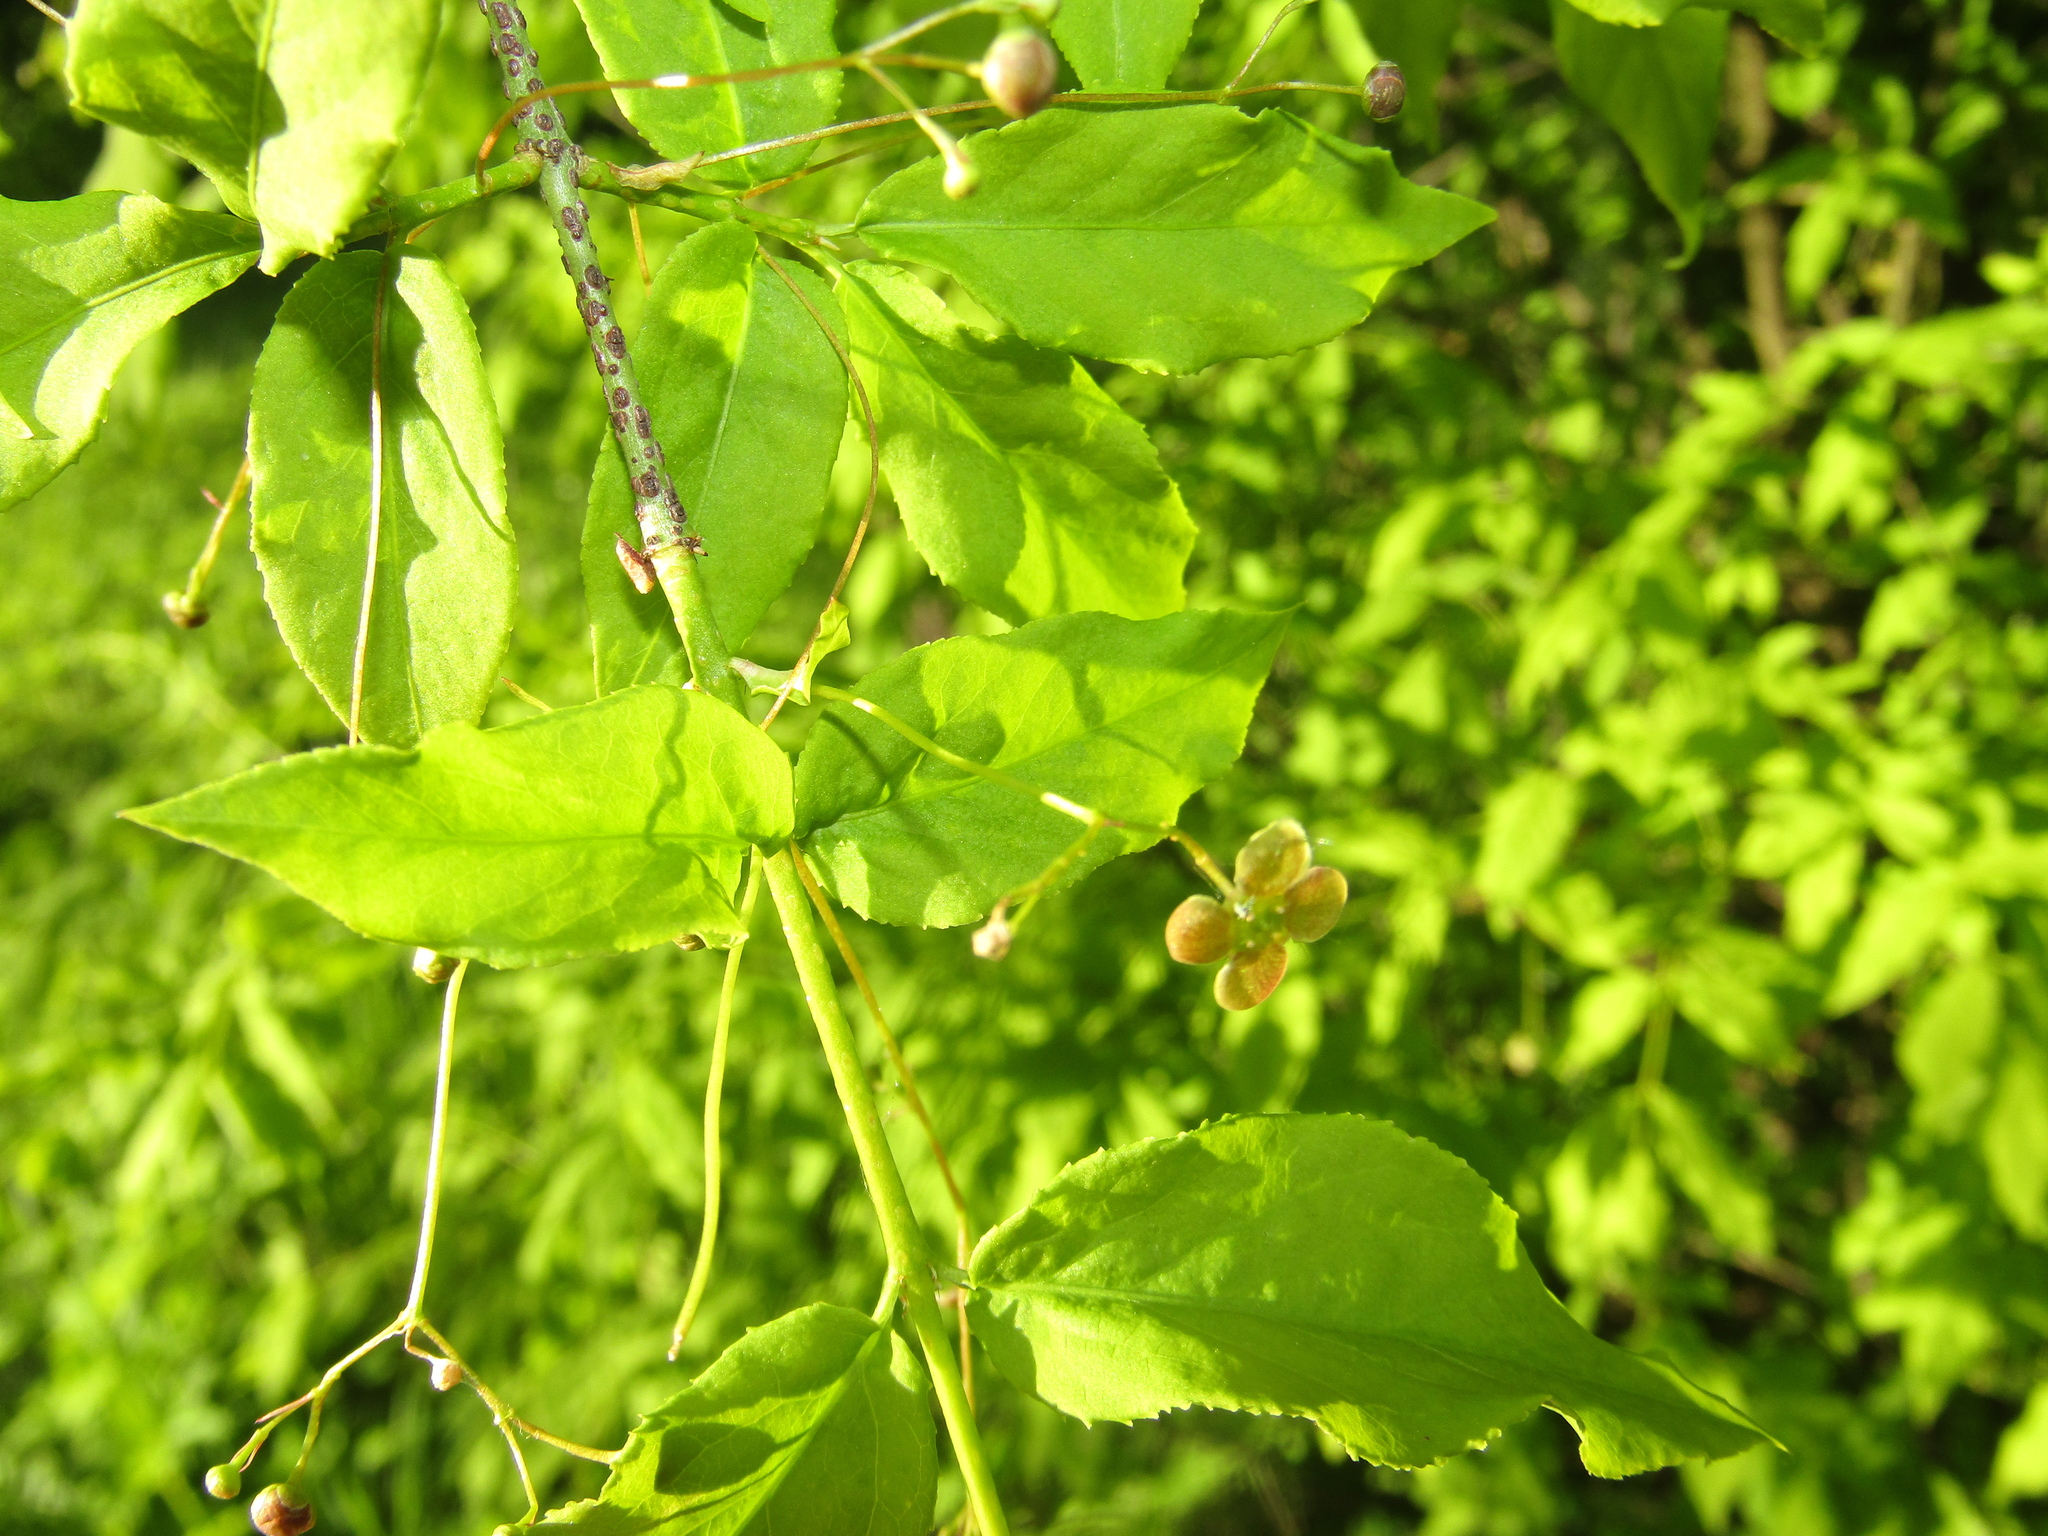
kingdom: Plantae
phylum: Tracheophyta
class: Magnoliopsida
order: Celastrales
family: Celastraceae
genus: Euonymus
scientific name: Euonymus verrucosus
